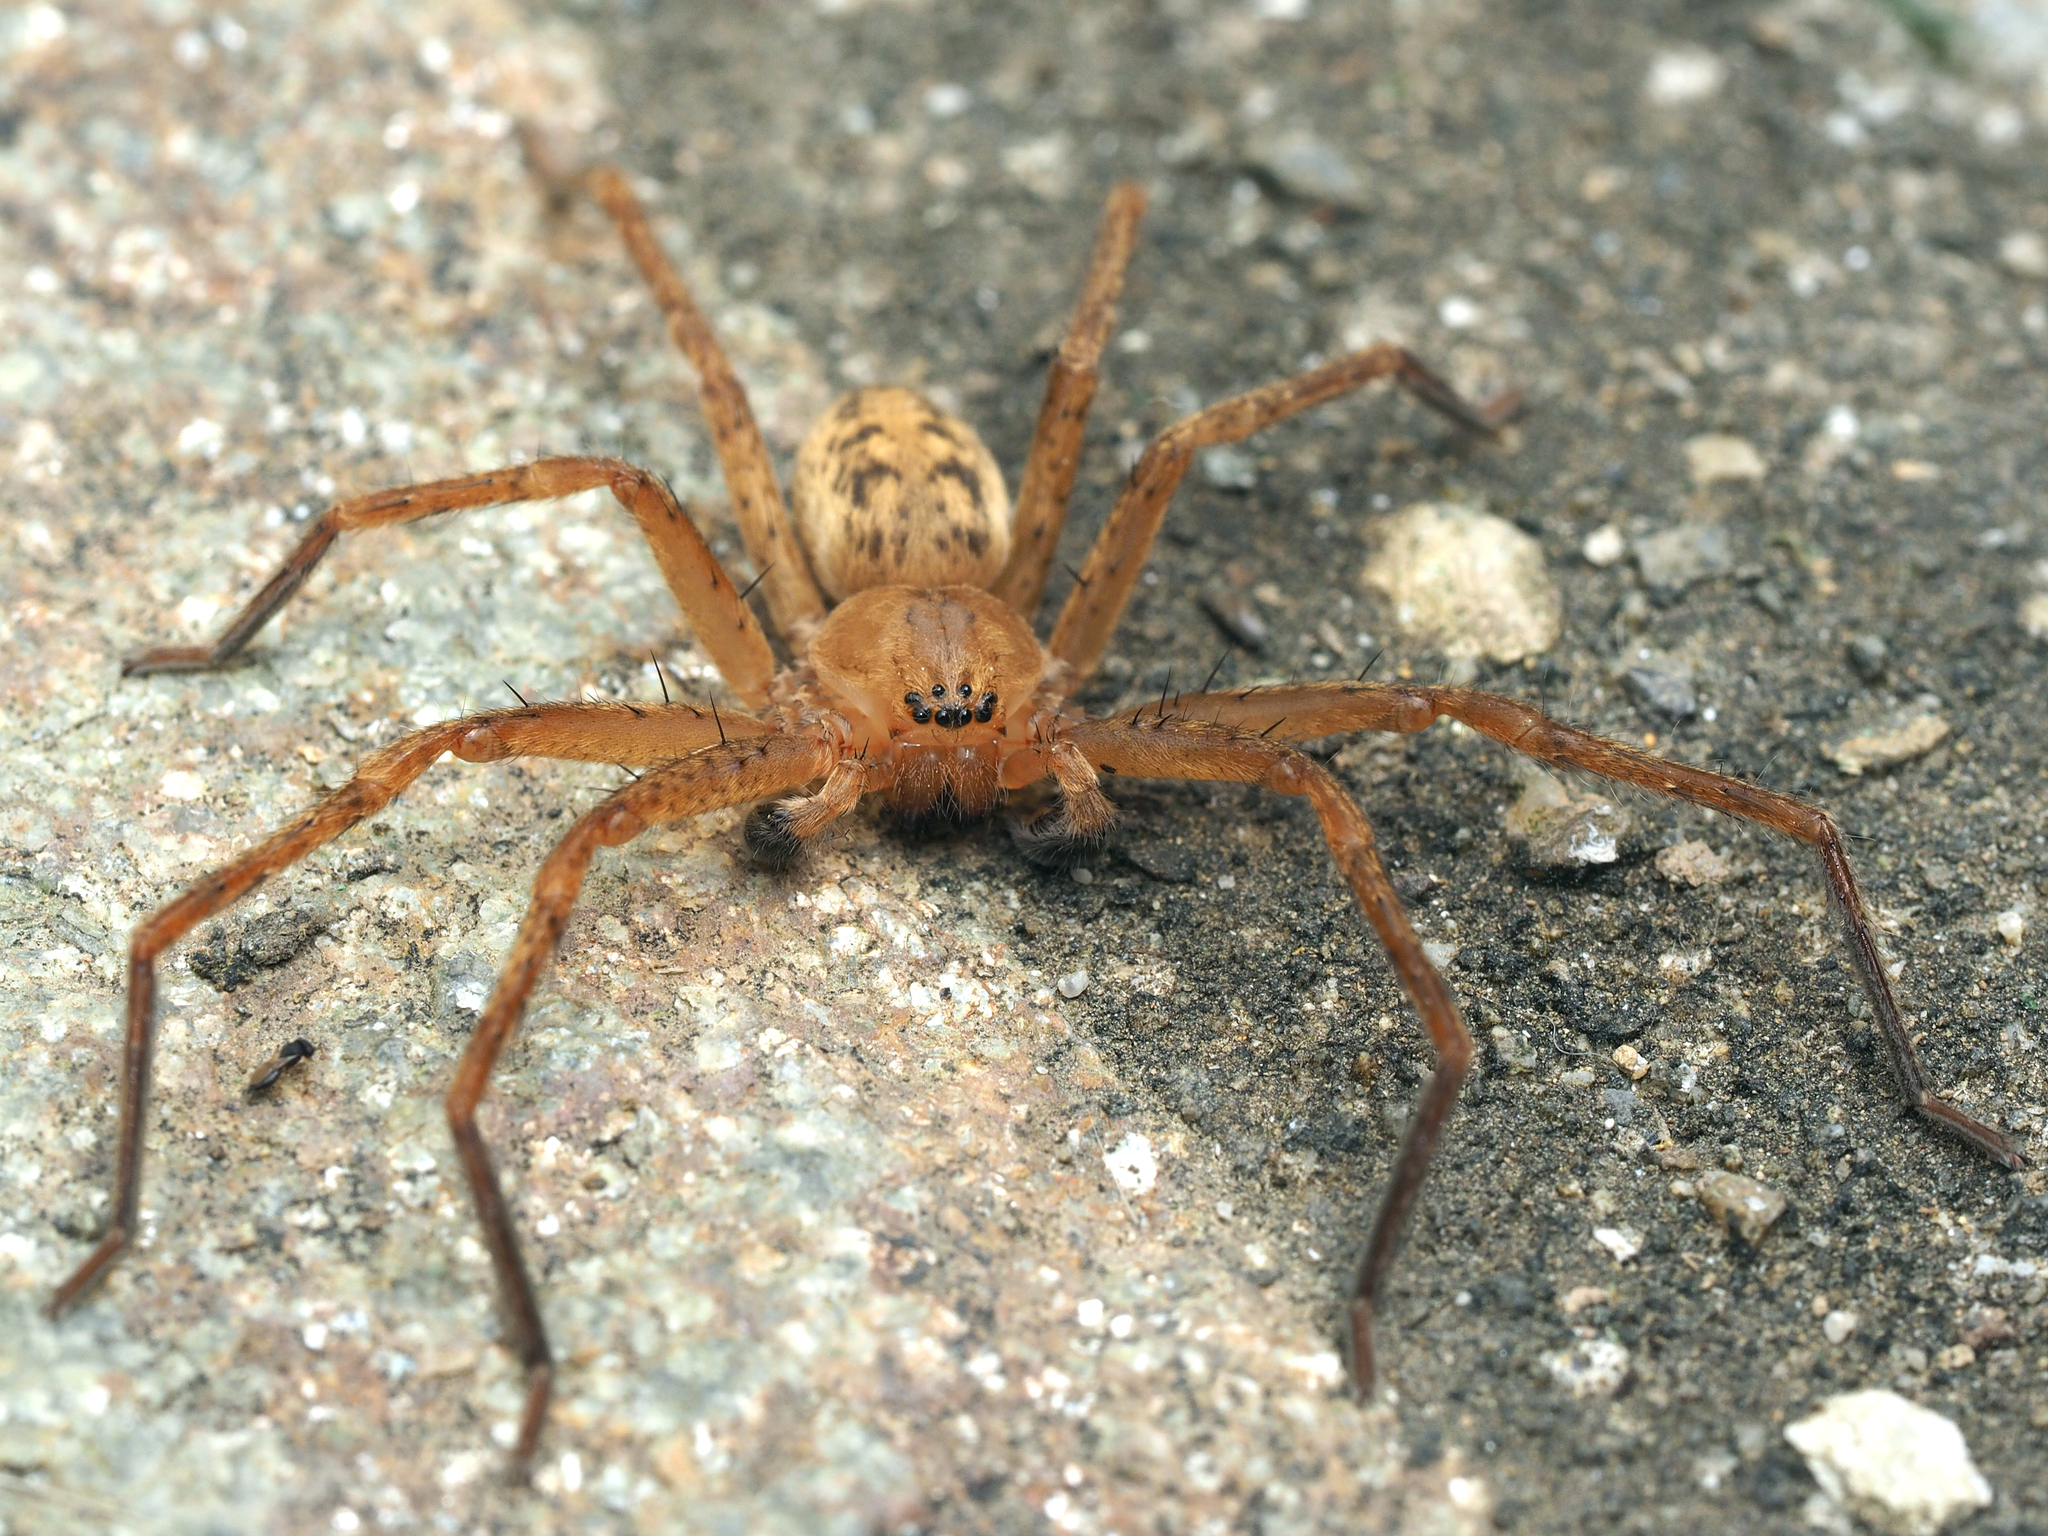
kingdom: Animalia
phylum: Arthropoda
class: Arachnida
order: Araneae
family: Sparassidae
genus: Olios
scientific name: Olios argelasius
